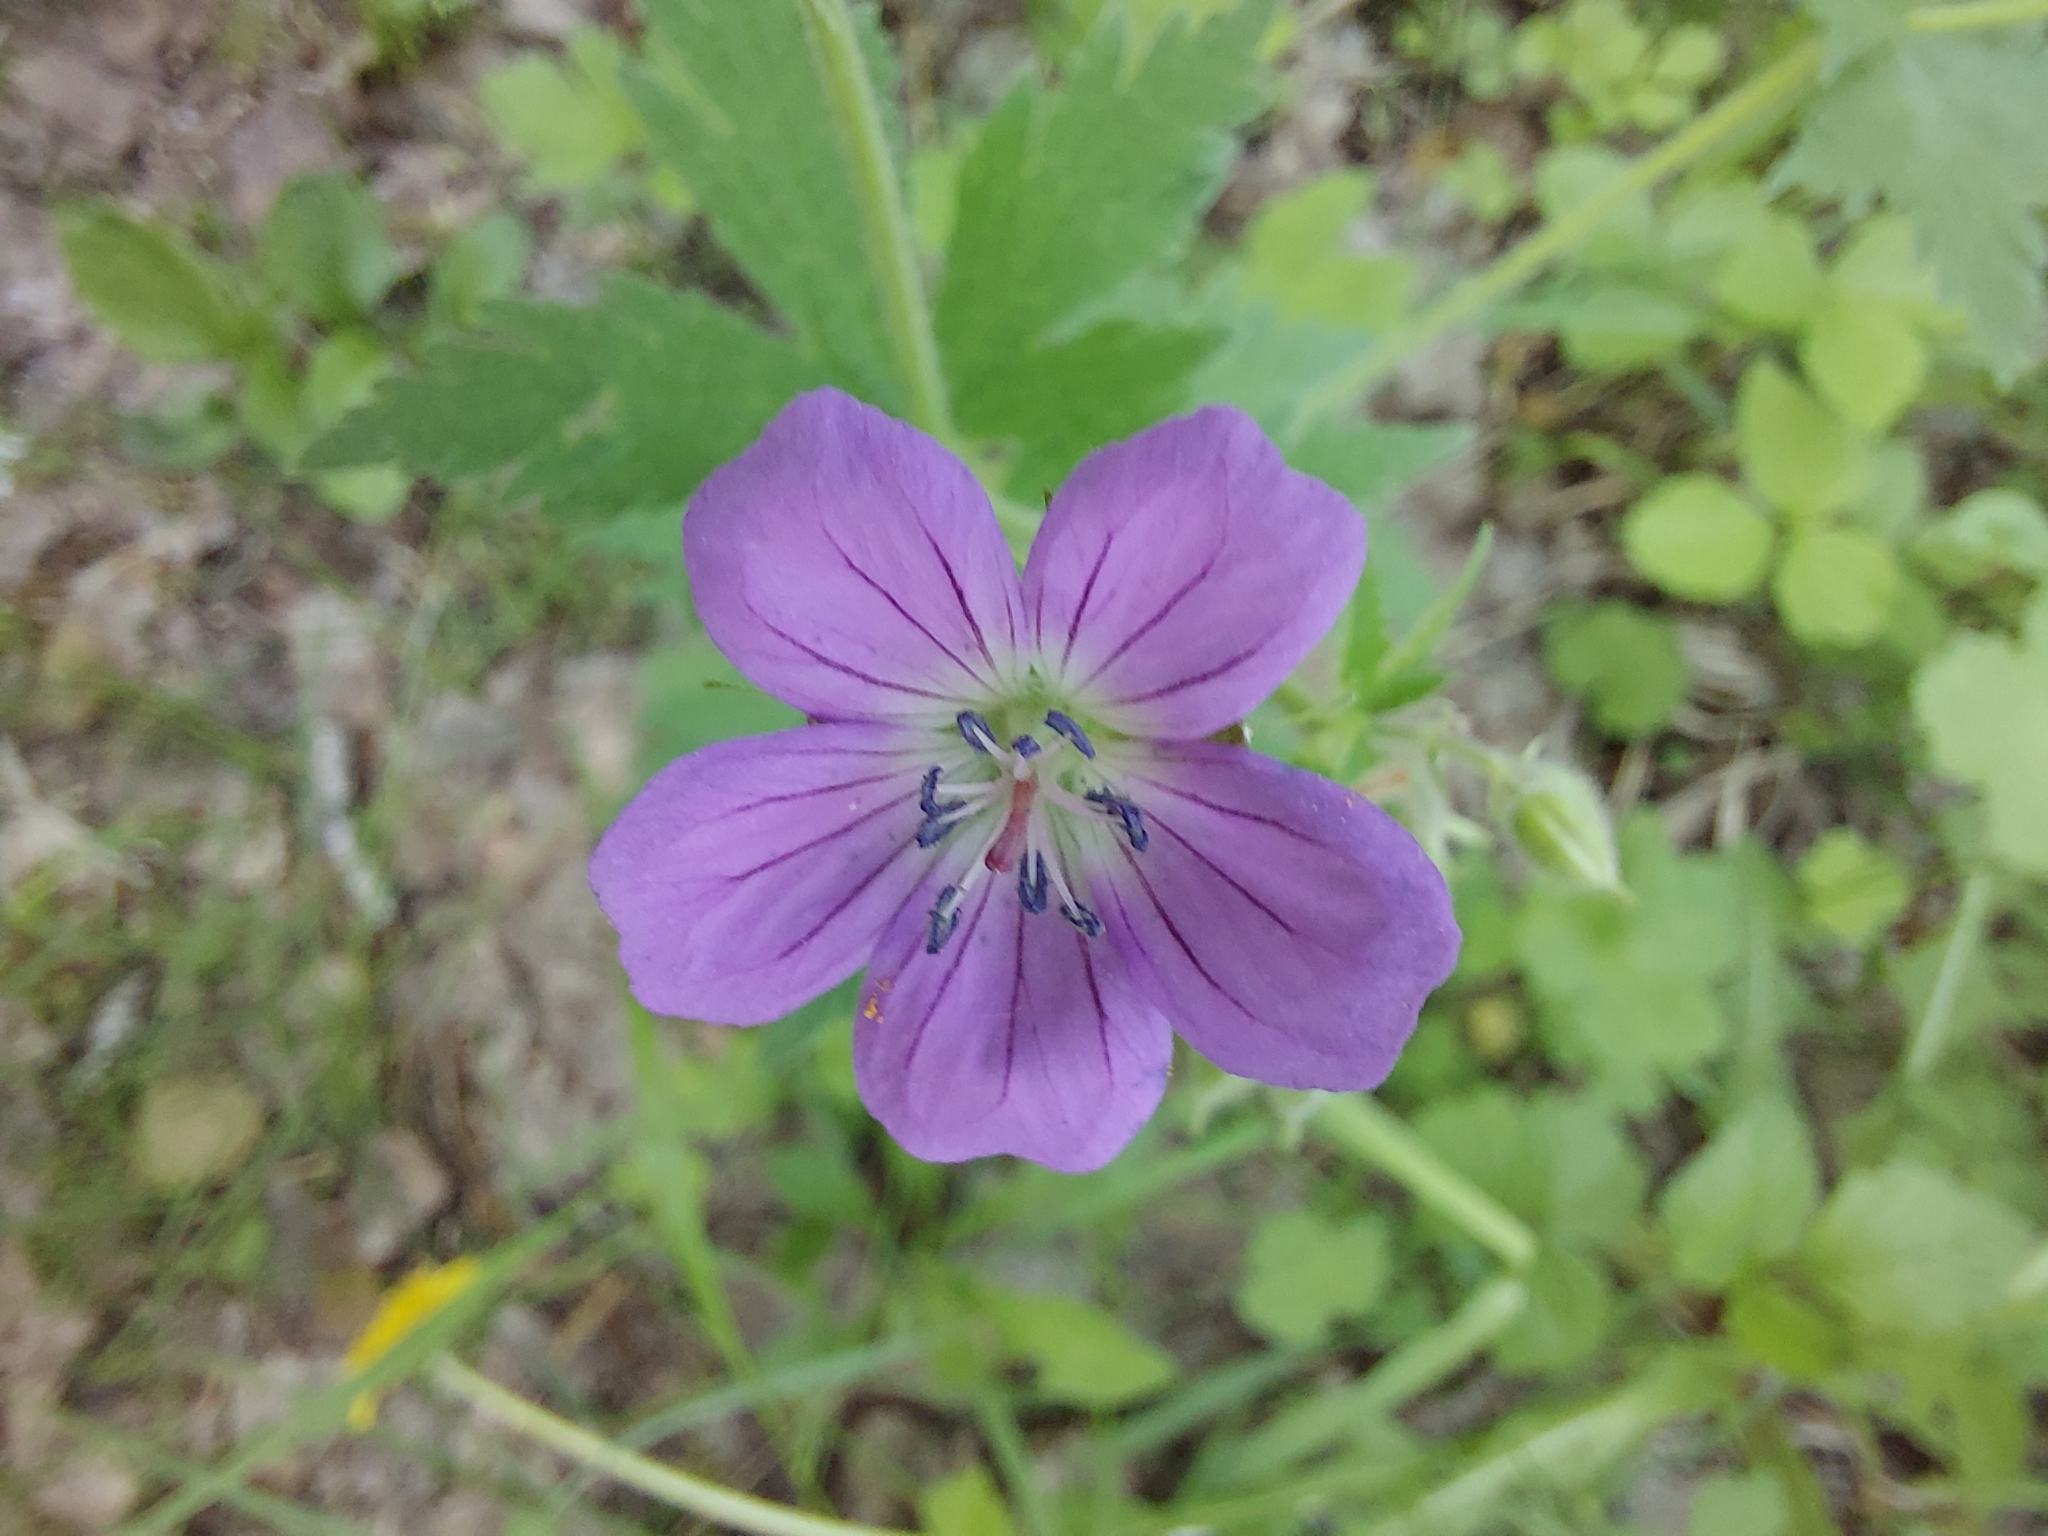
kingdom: Plantae
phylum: Tracheophyta
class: Magnoliopsida
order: Geraniales
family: Geraniaceae
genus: Geranium
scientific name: Geranium sylvaticum
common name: Wood crane's-bill
